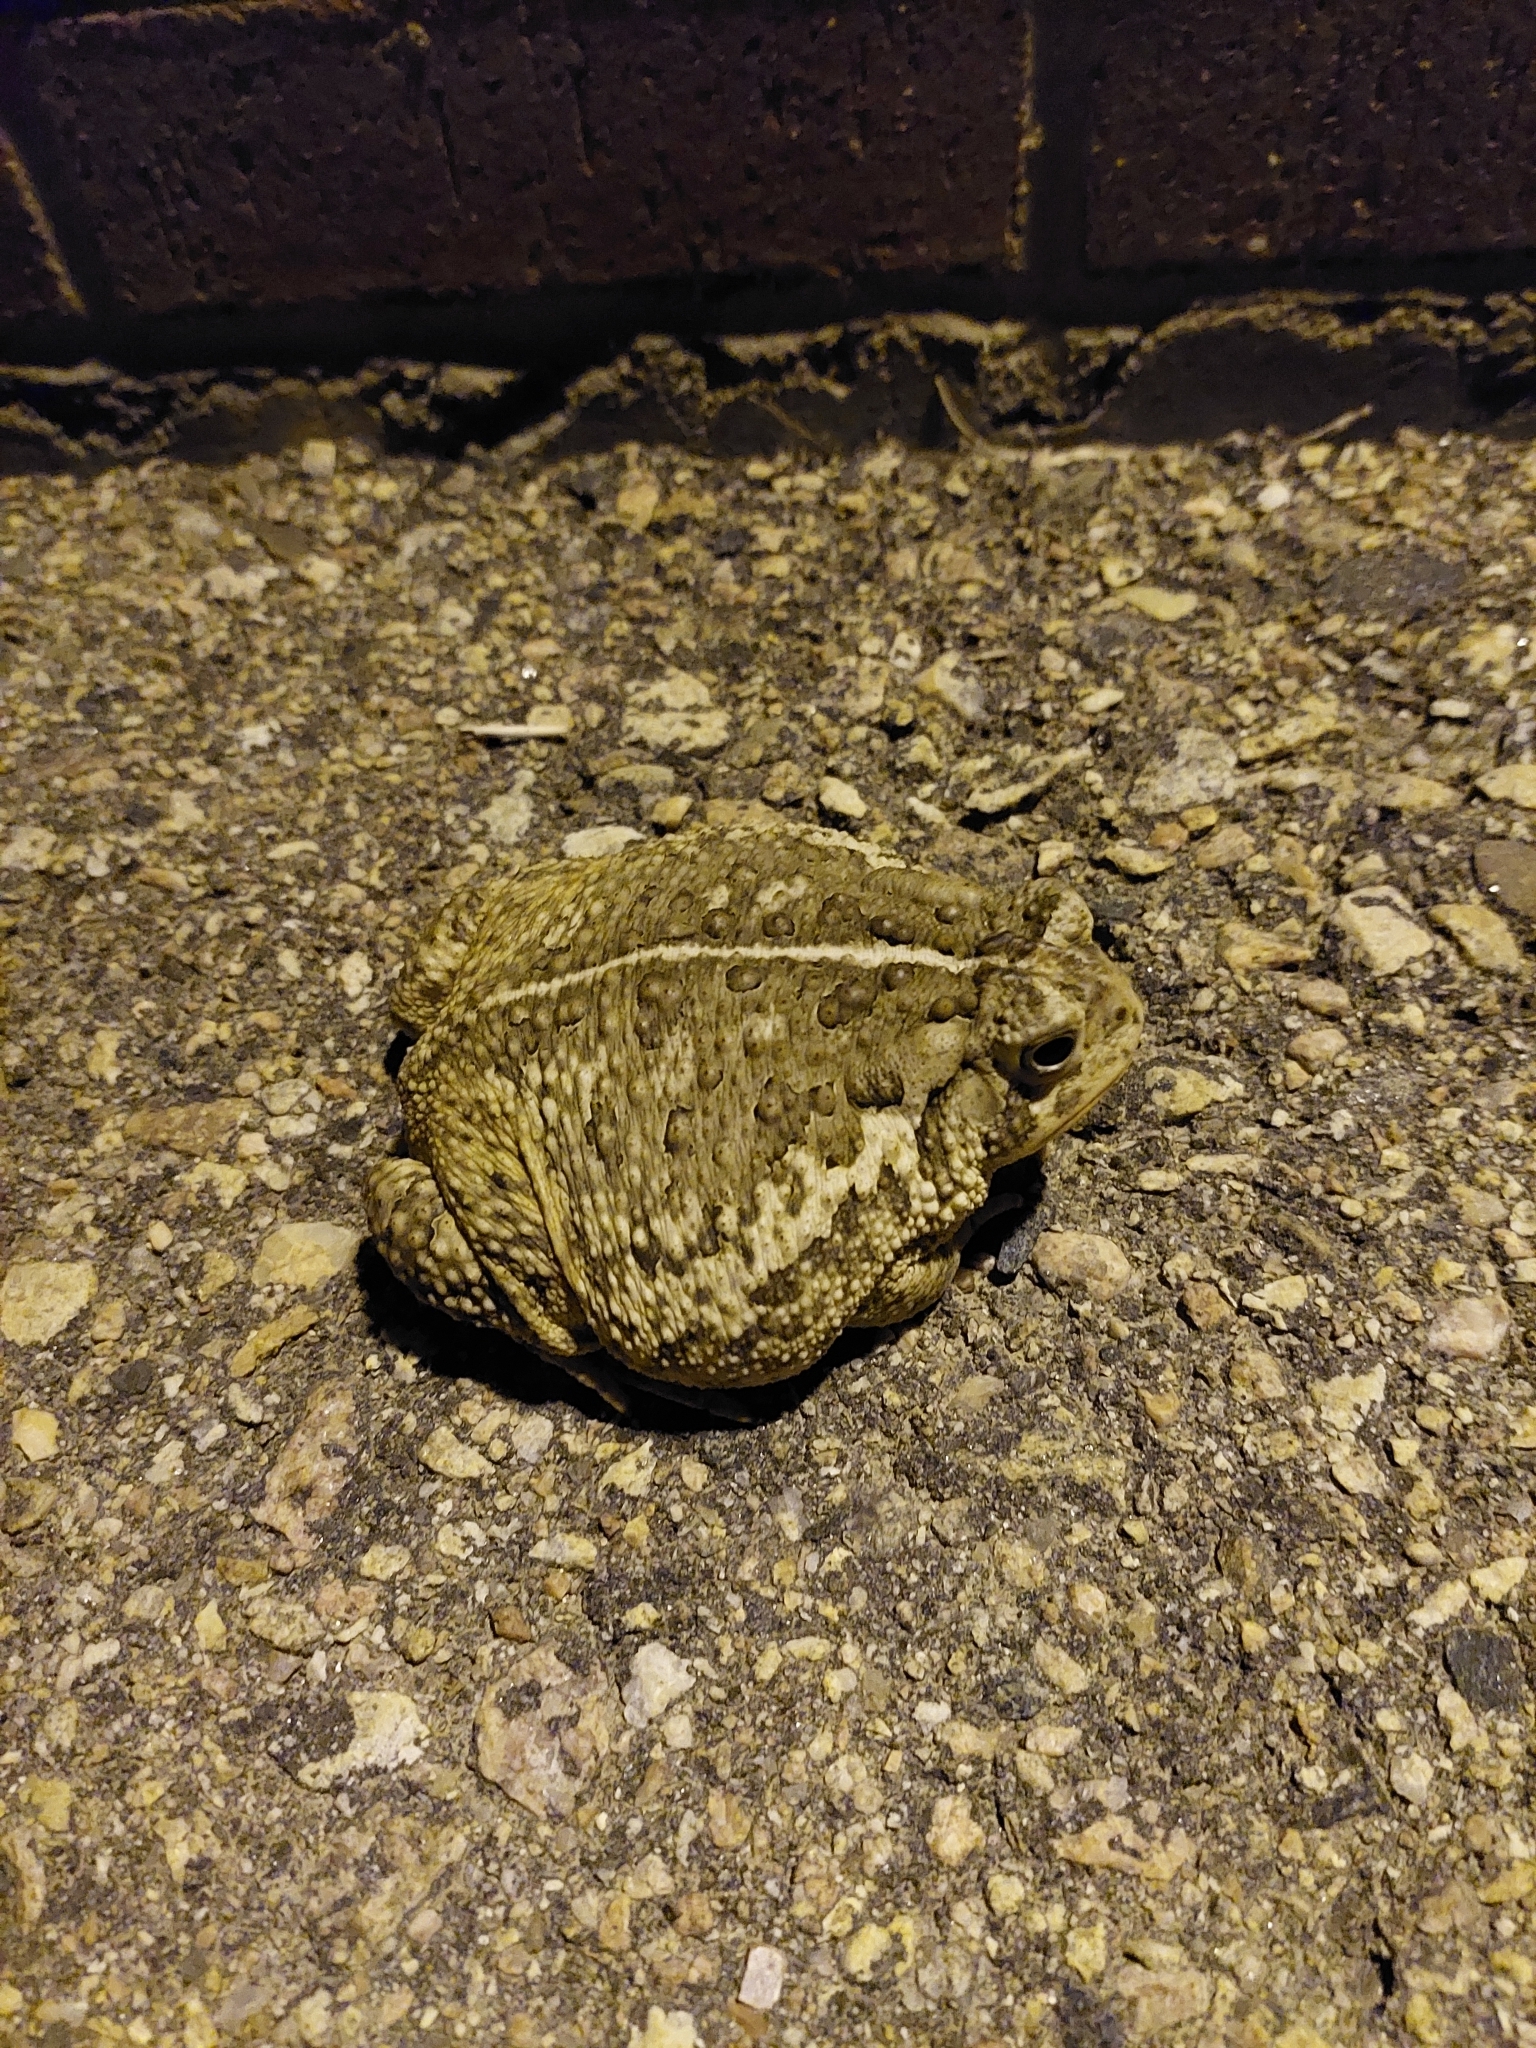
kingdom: Animalia
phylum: Chordata
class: Amphibia
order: Anura
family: Bufonidae
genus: Anaxyrus
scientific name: Anaxyrus woodhousii
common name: Woodhouse's toad
